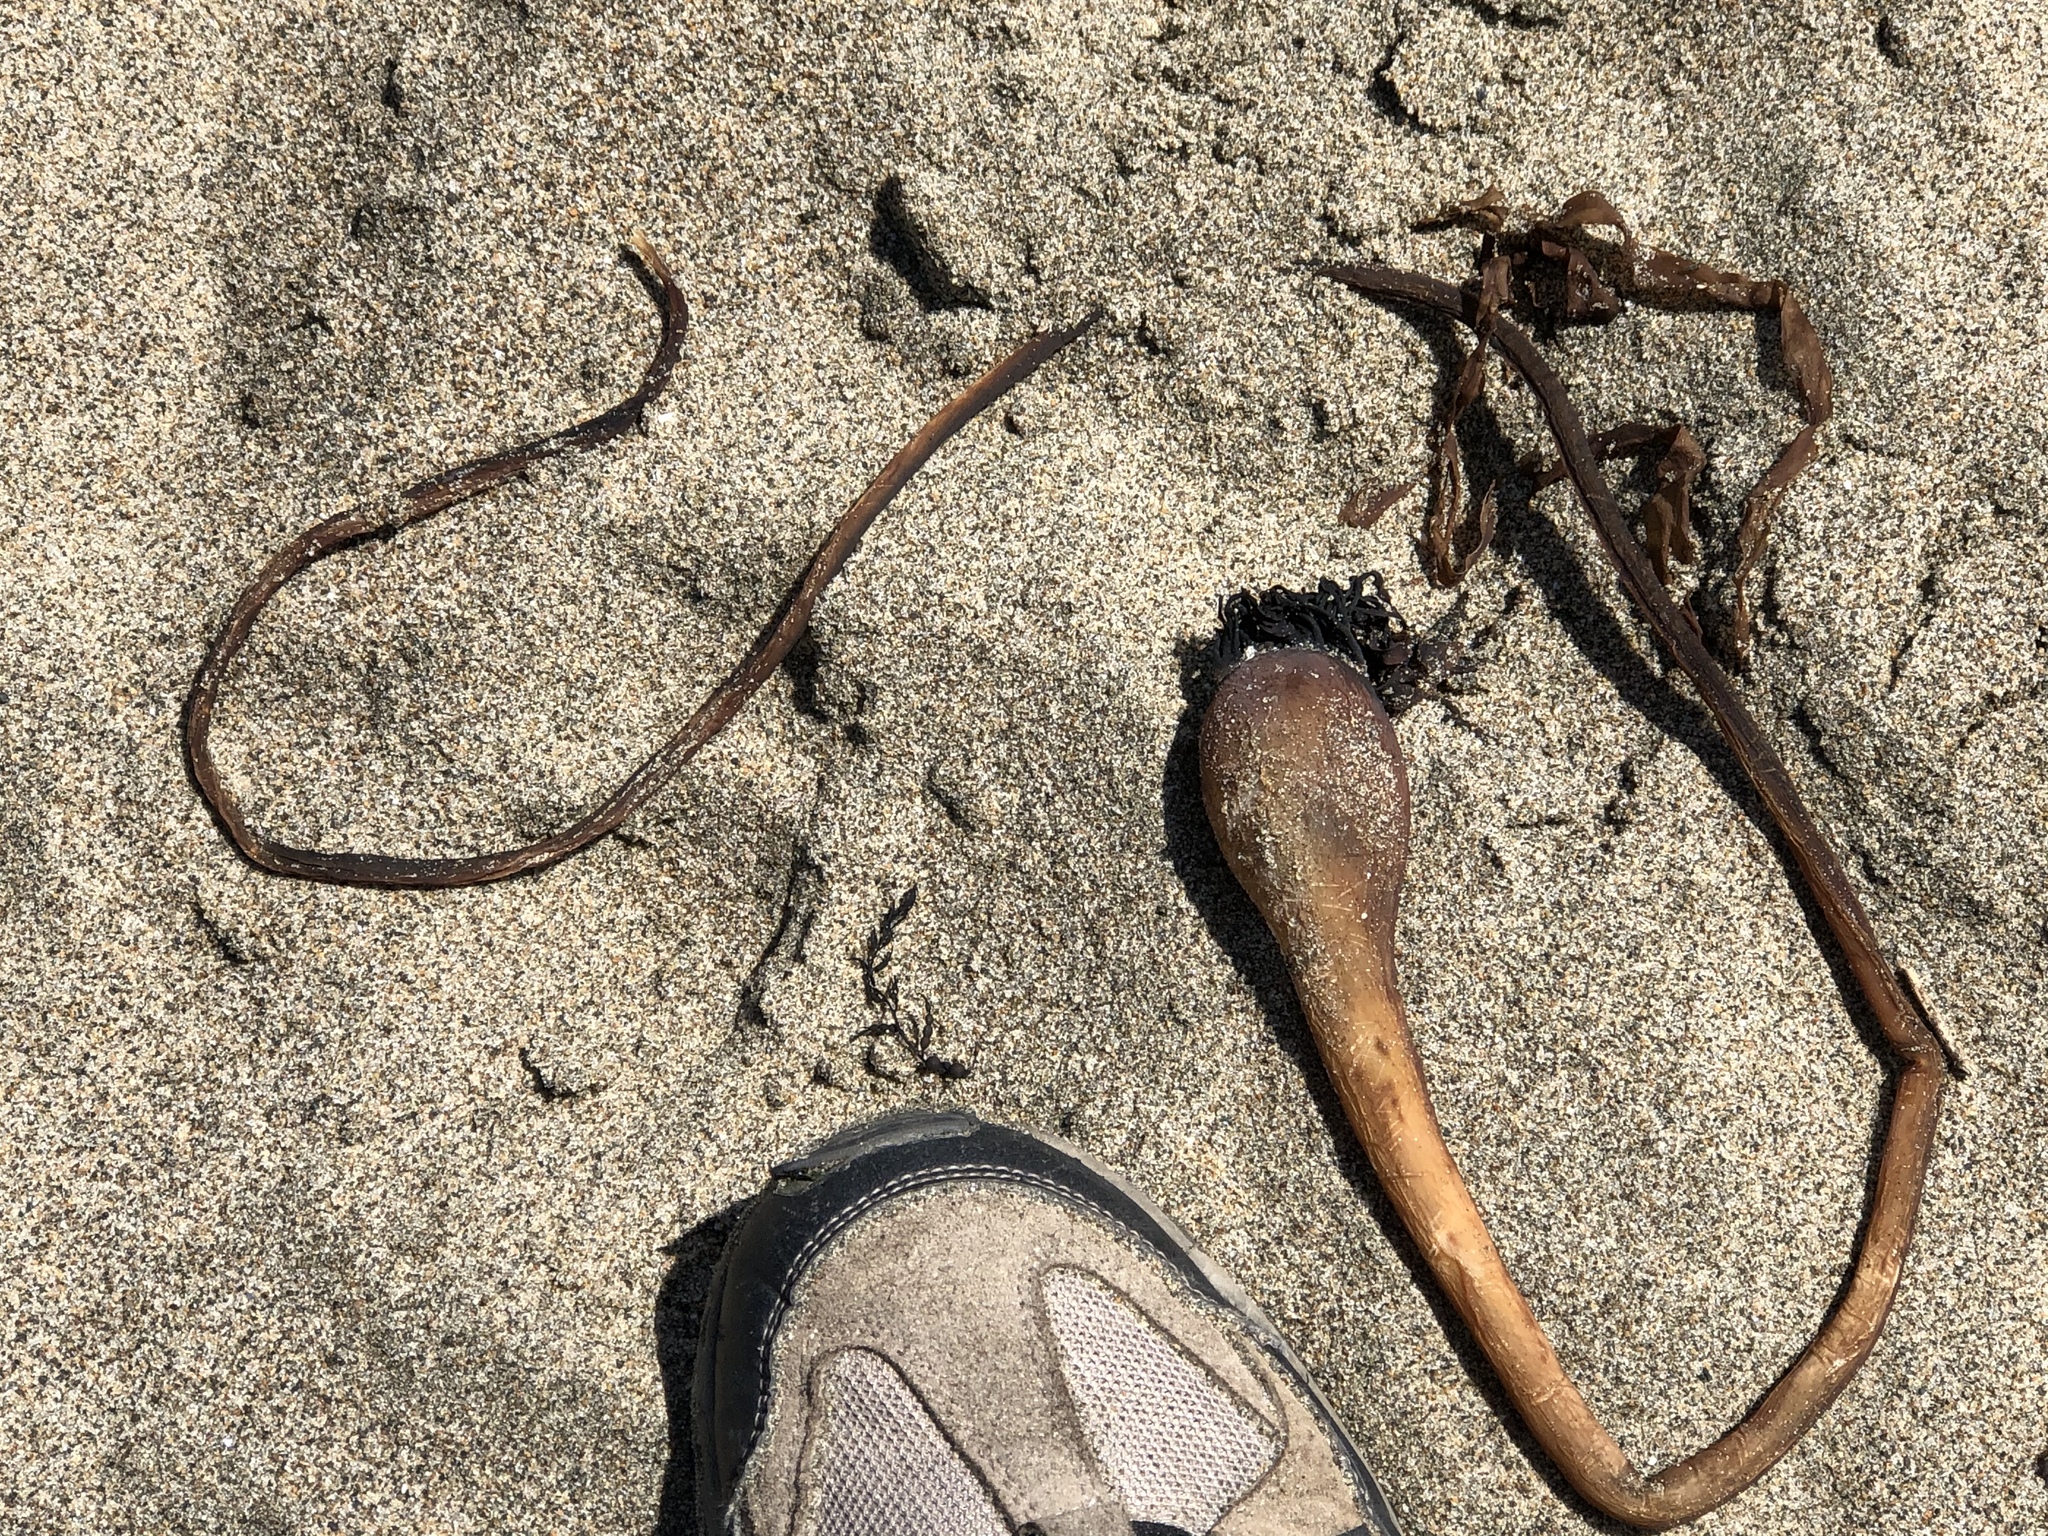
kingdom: Chromista
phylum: Ochrophyta
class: Phaeophyceae
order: Laminariales
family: Laminariaceae
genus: Nereocystis
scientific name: Nereocystis luetkeana
